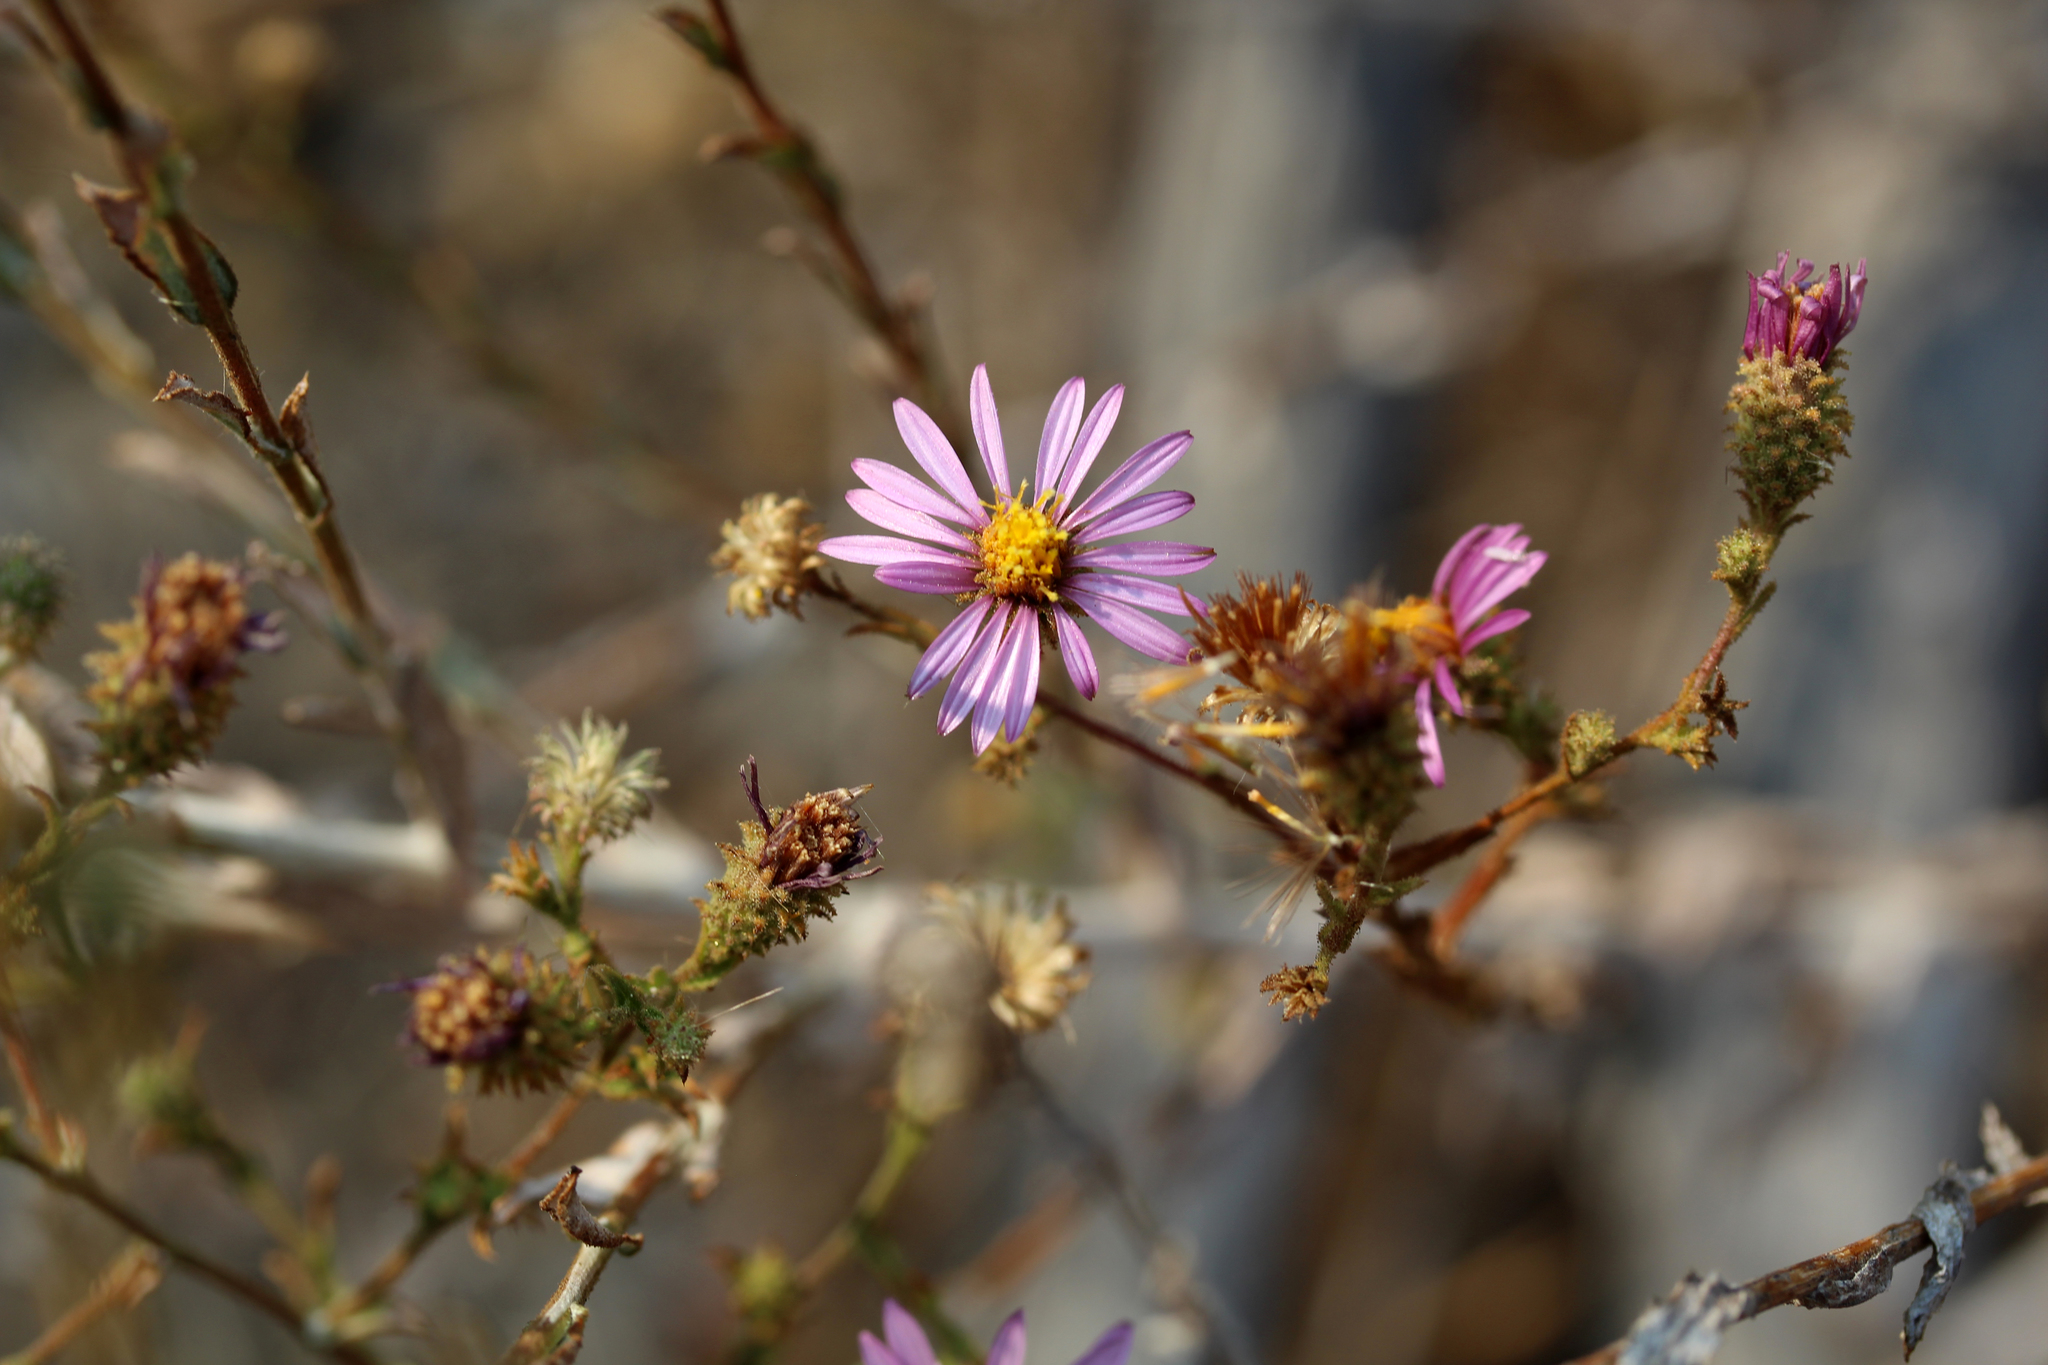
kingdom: Plantae
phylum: Tracheophyta
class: Magnoliopsida
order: Asterales
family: Asteraceae
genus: Corethrogyne
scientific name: Corethrogyne filaginifolia
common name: Sand-aster
